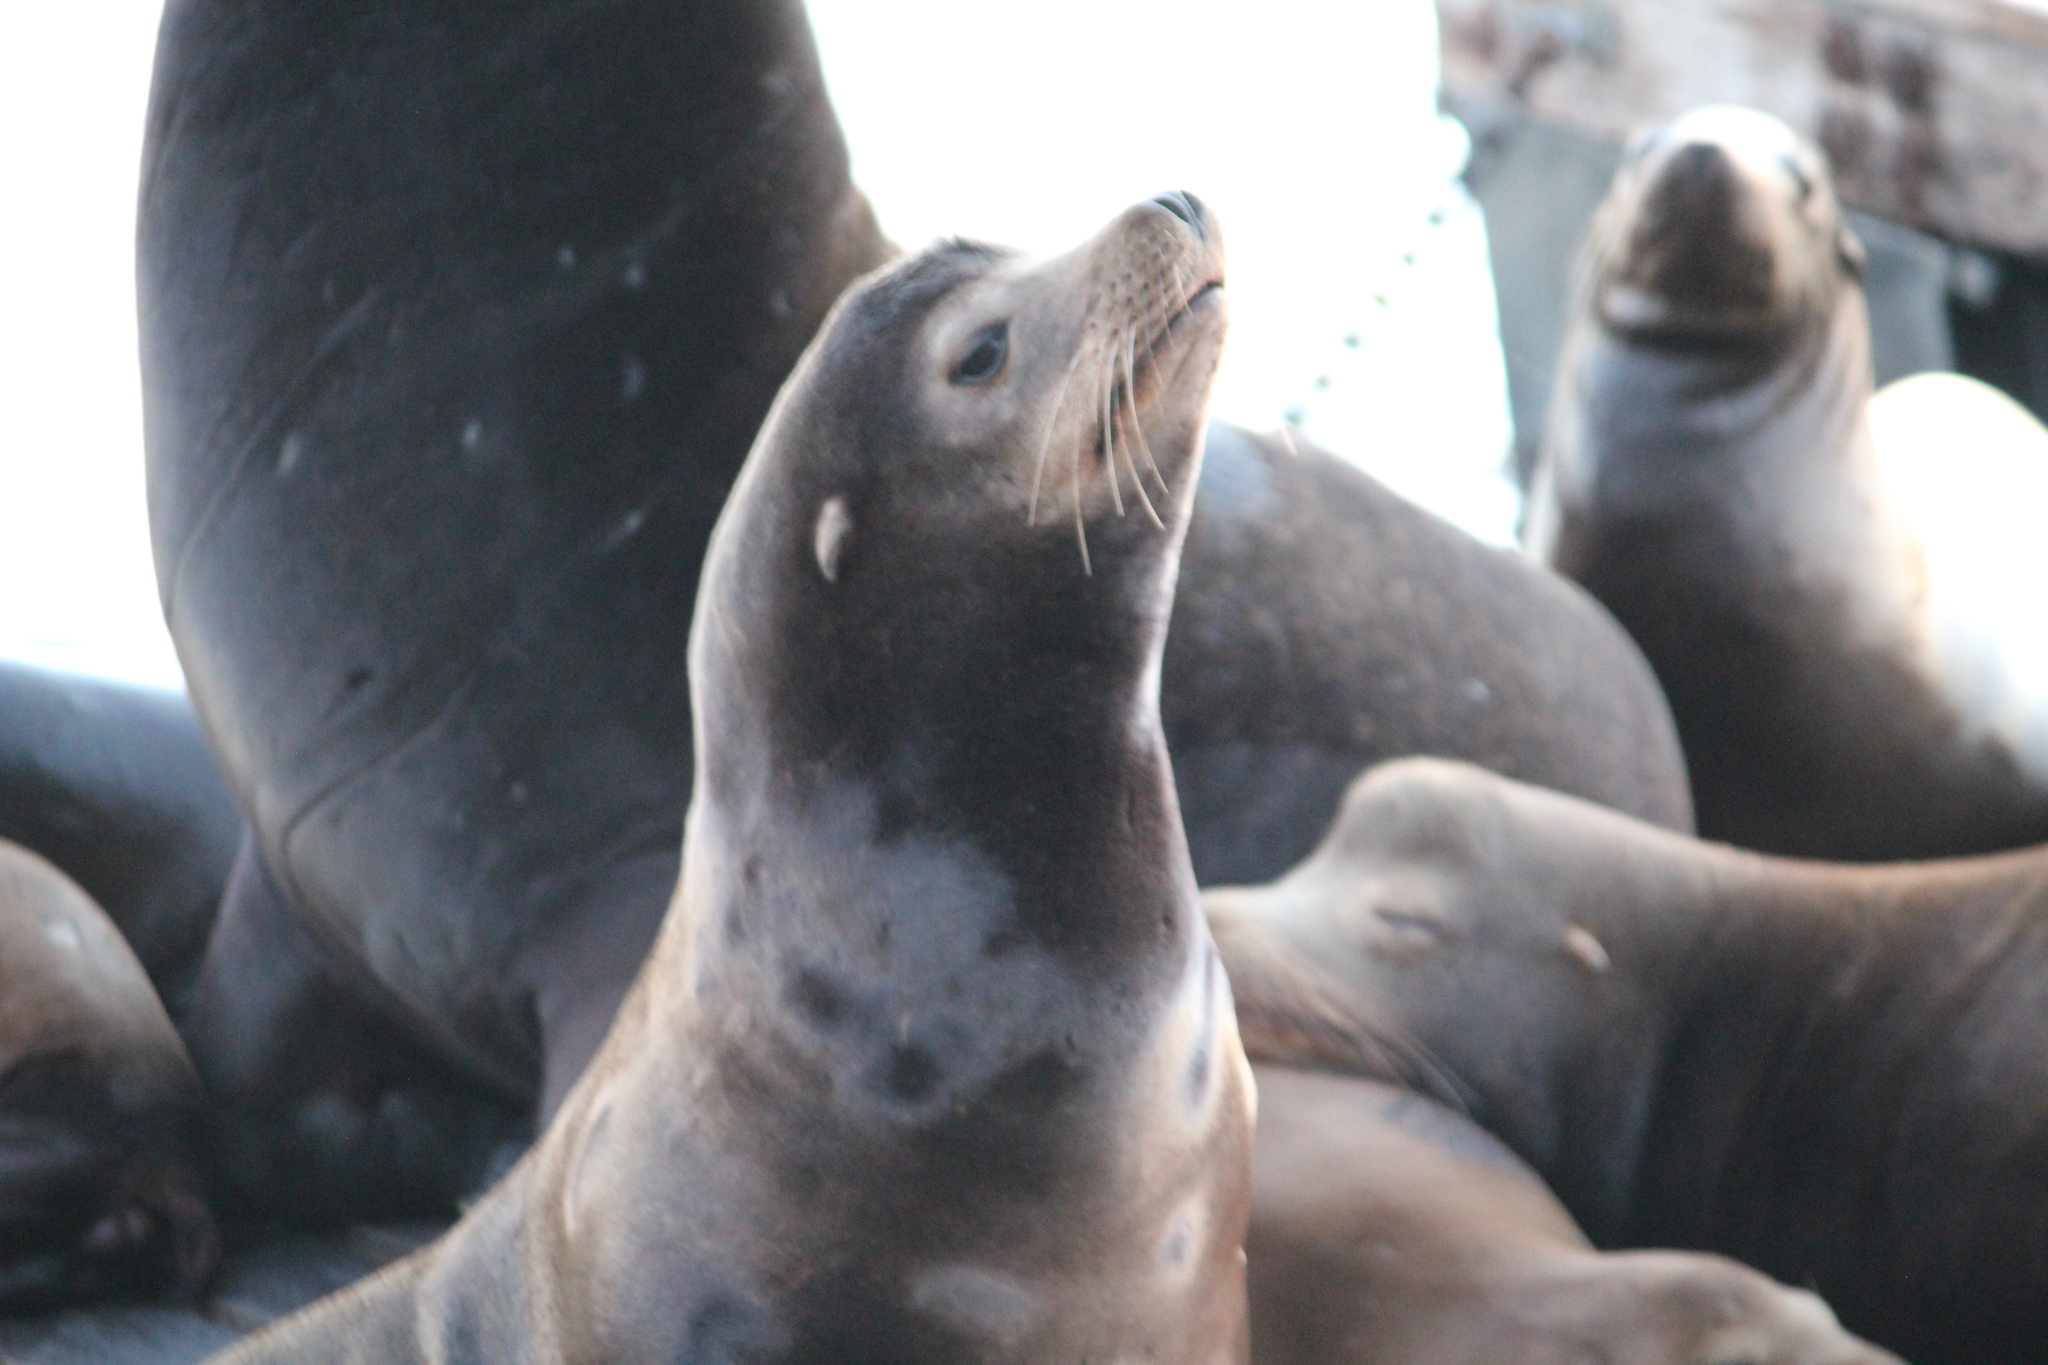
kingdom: Animalia
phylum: Chordata
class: Mammalia
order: Carnivora
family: Otariidae
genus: Zalophus
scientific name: Zalophus californianus
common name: California sea lion
